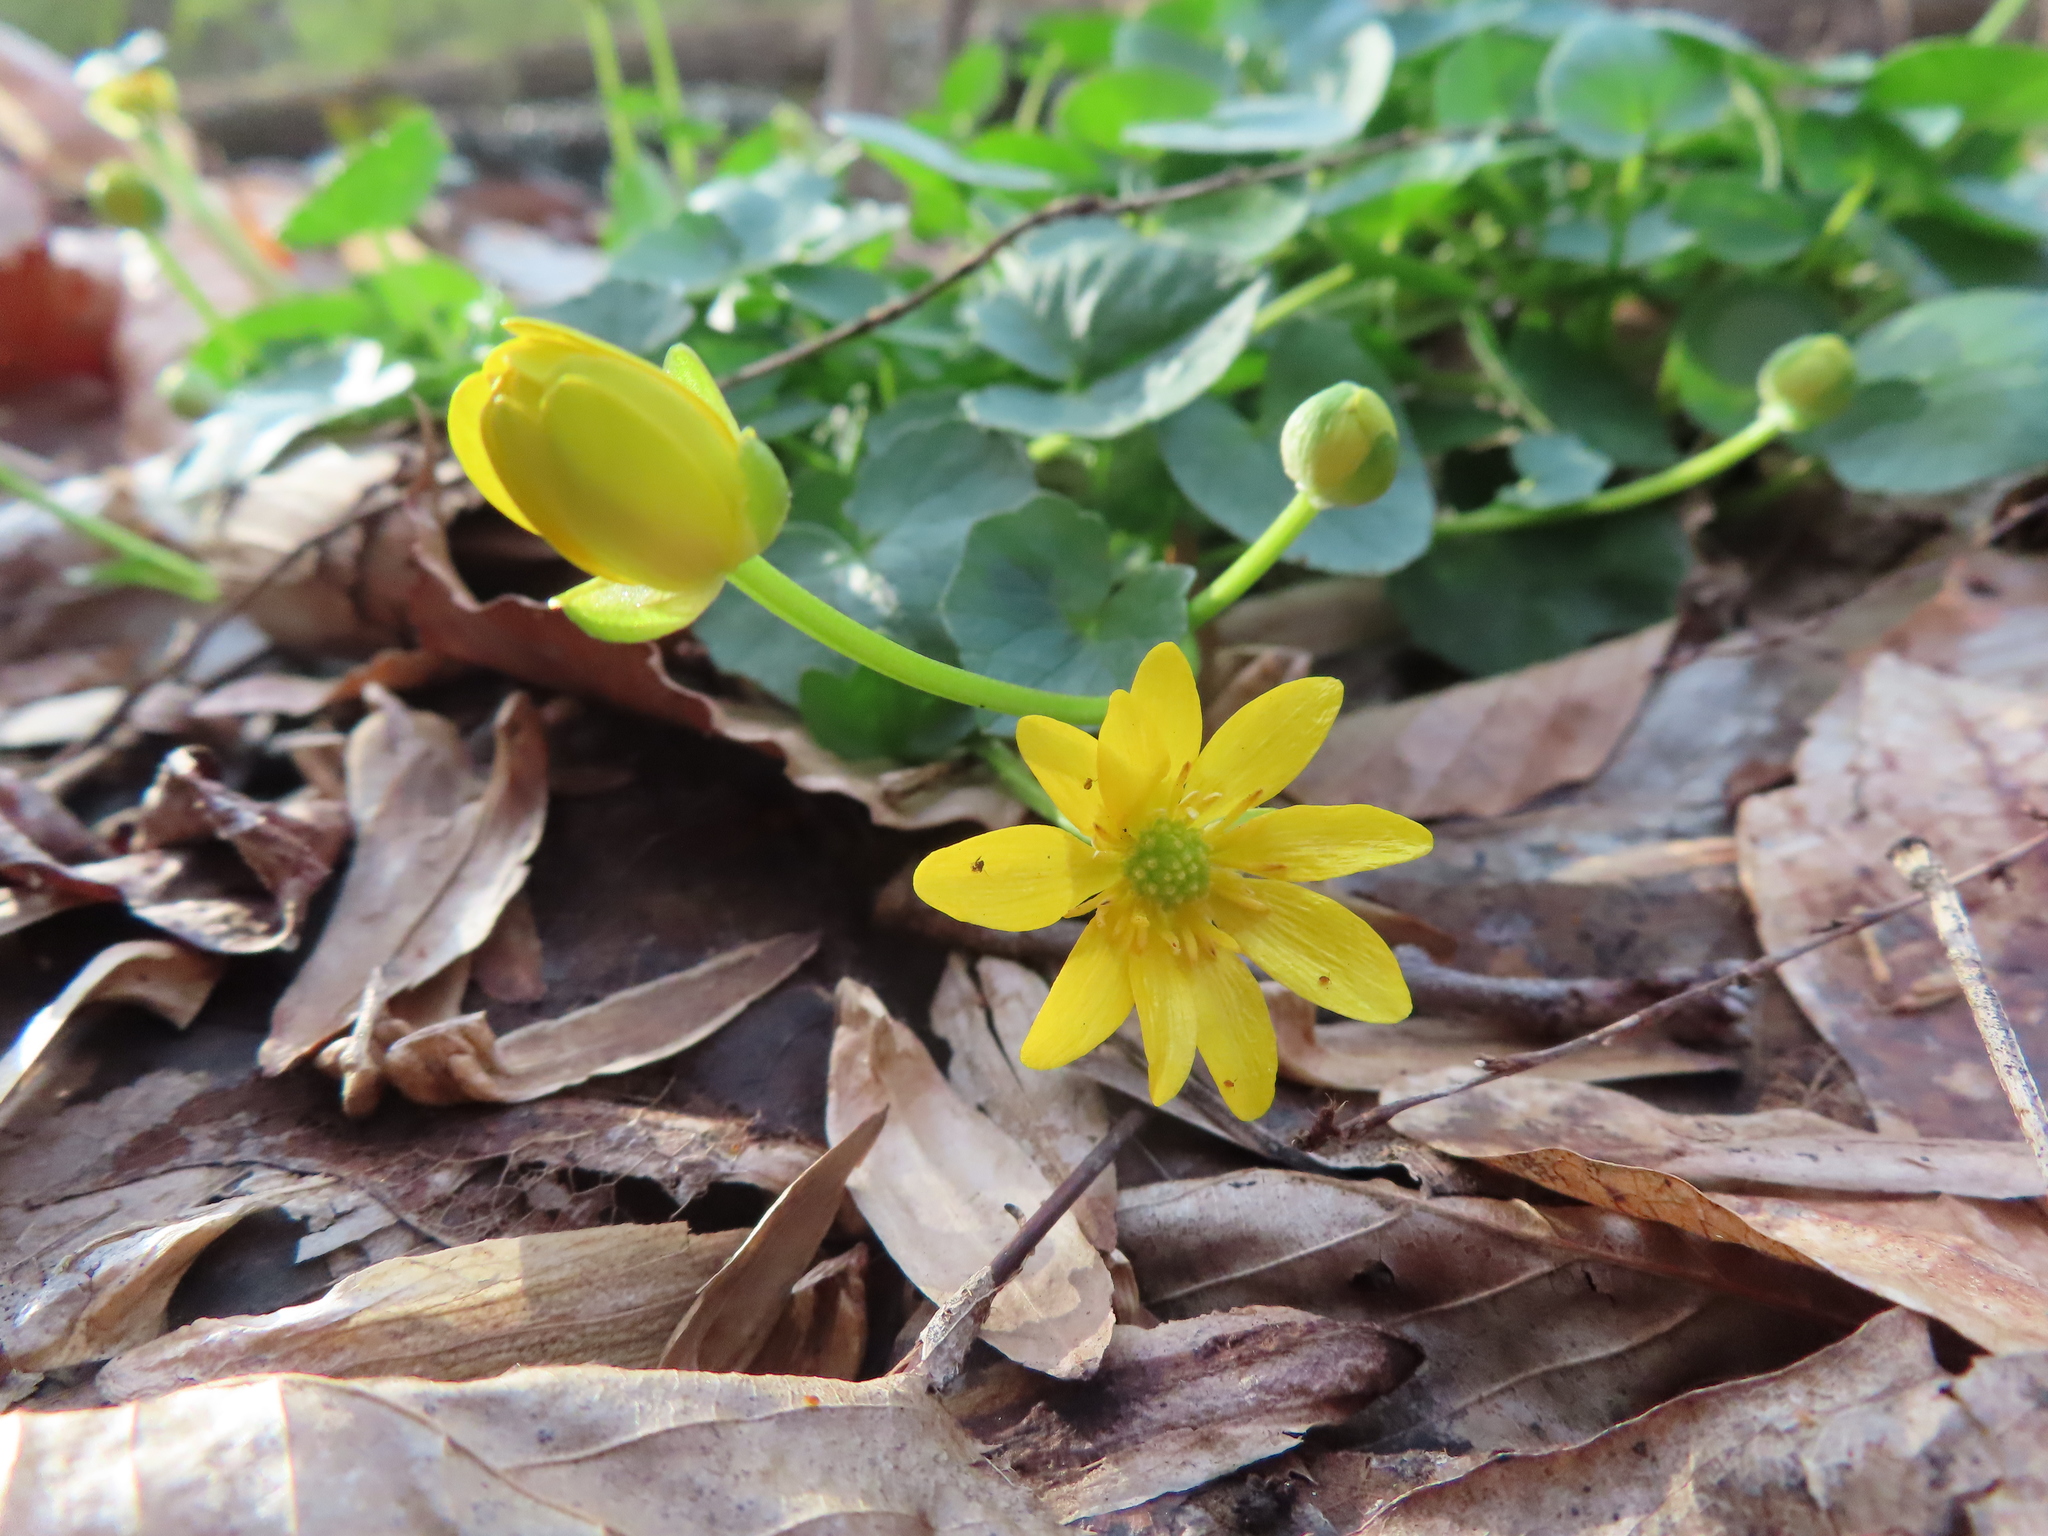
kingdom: Plantae
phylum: Tracheophyta
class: Magnoliopsida
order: Ranunculales
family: Ranunculaceae
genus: Ficaria
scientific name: Ficaria verna
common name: Lesser celandine
